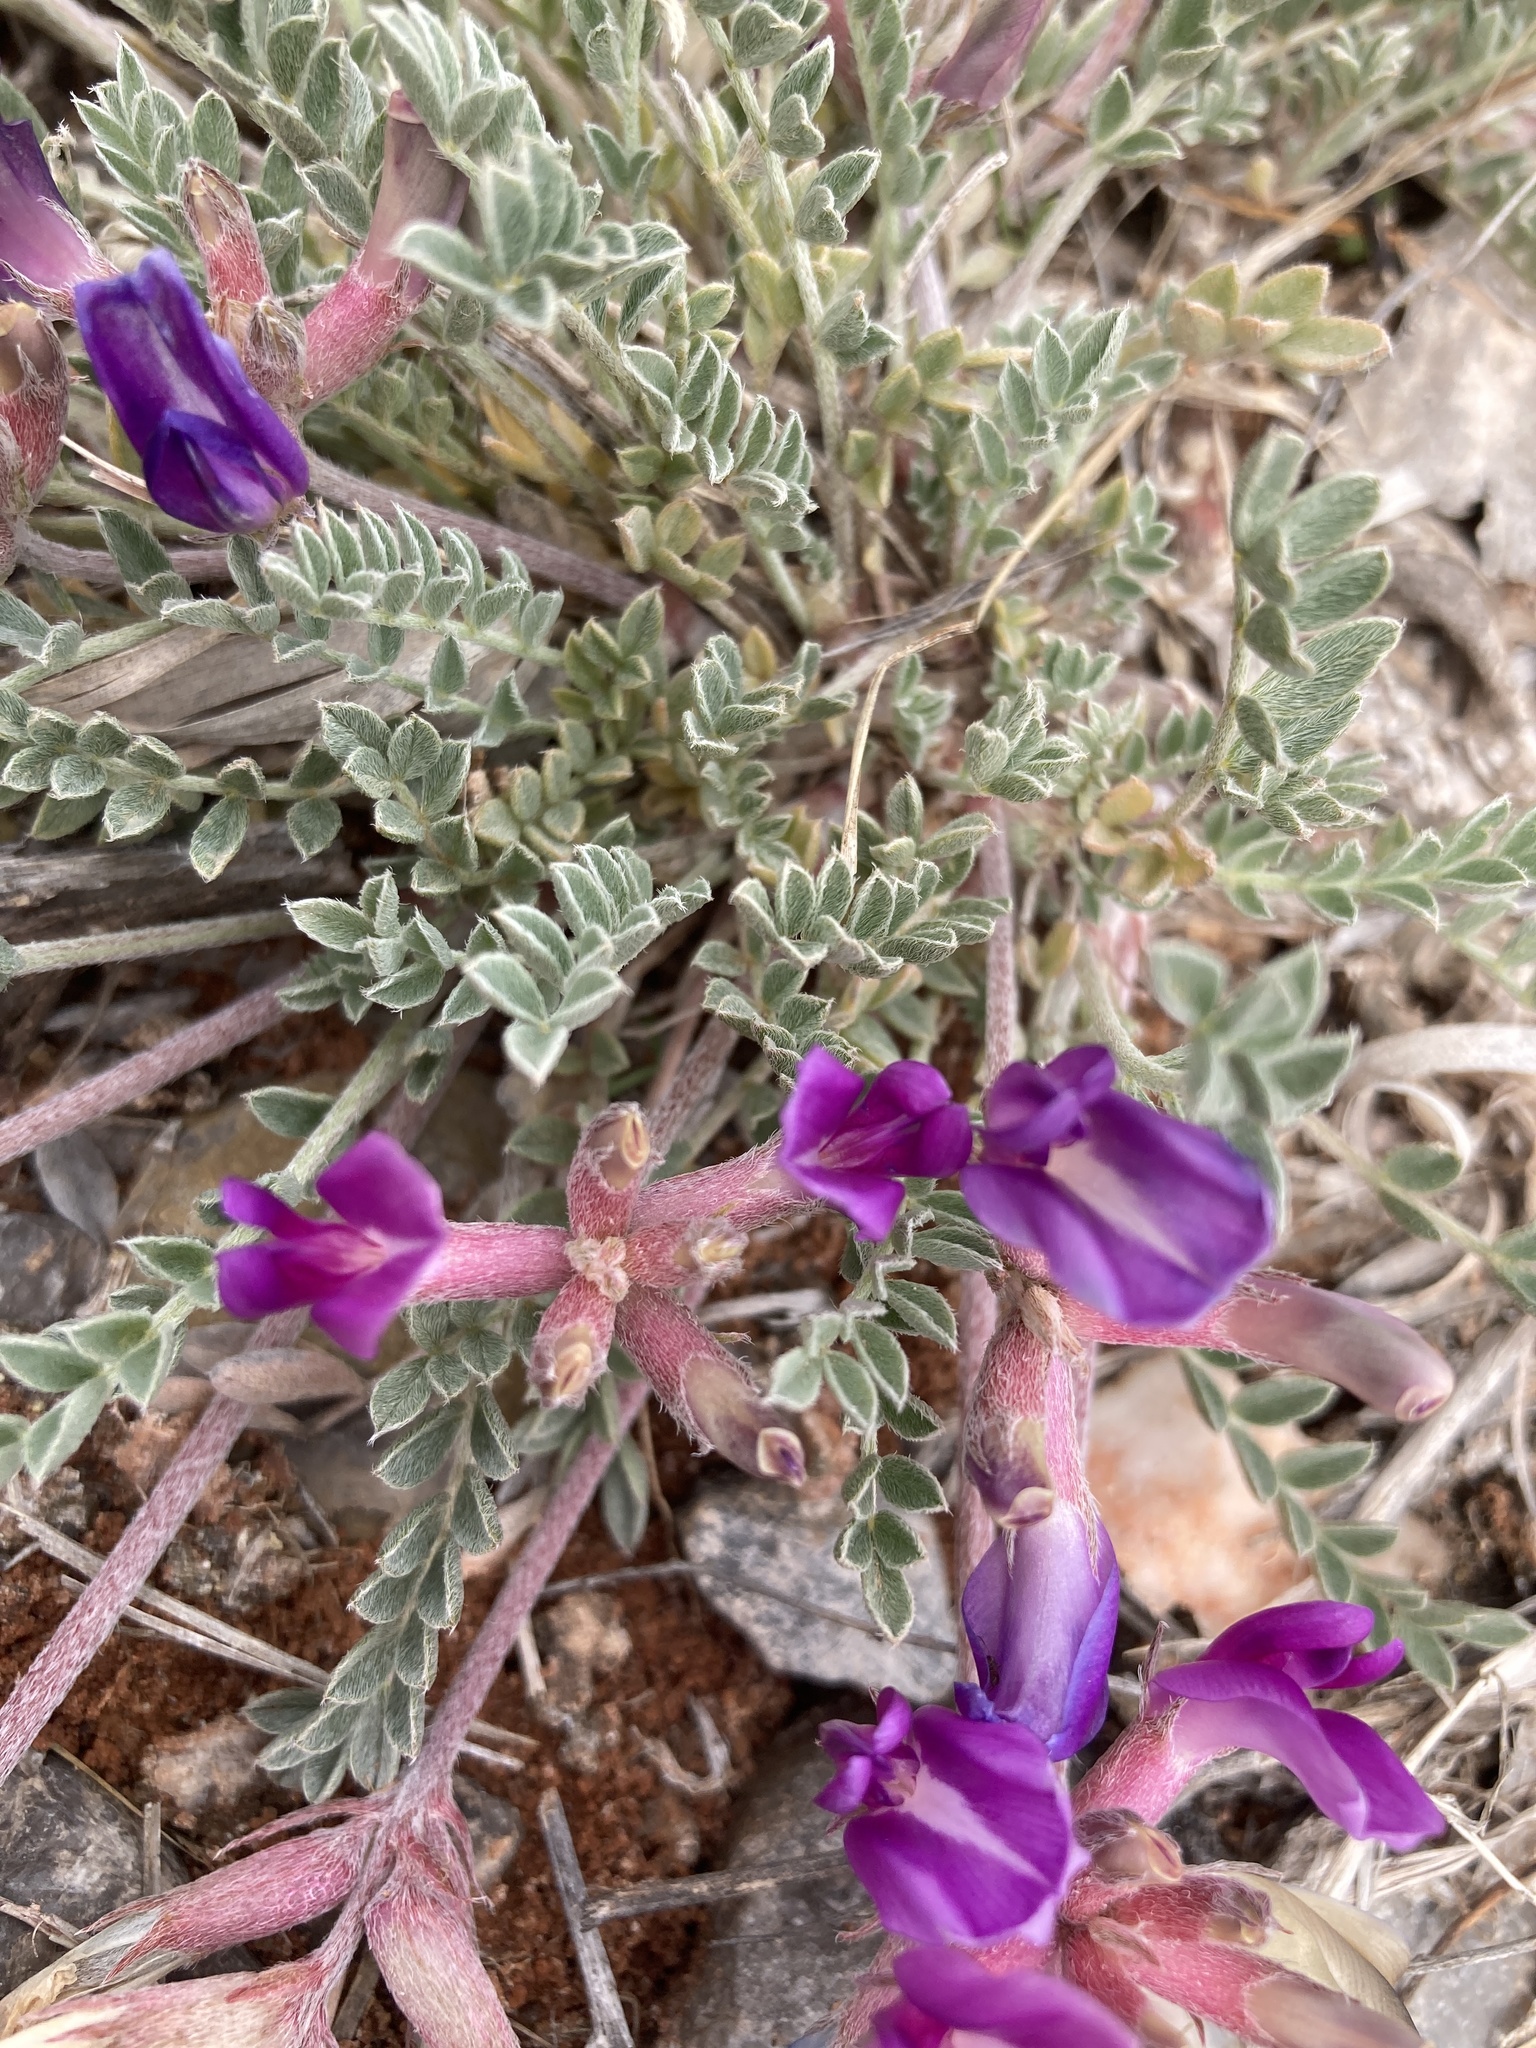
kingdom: Plantae
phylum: Tracheophyta
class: Magnoliopsida
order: Fabales
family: Fabaceae
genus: Astragalus
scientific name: Astragalus missouriensis
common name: Missouri milk-vetch
